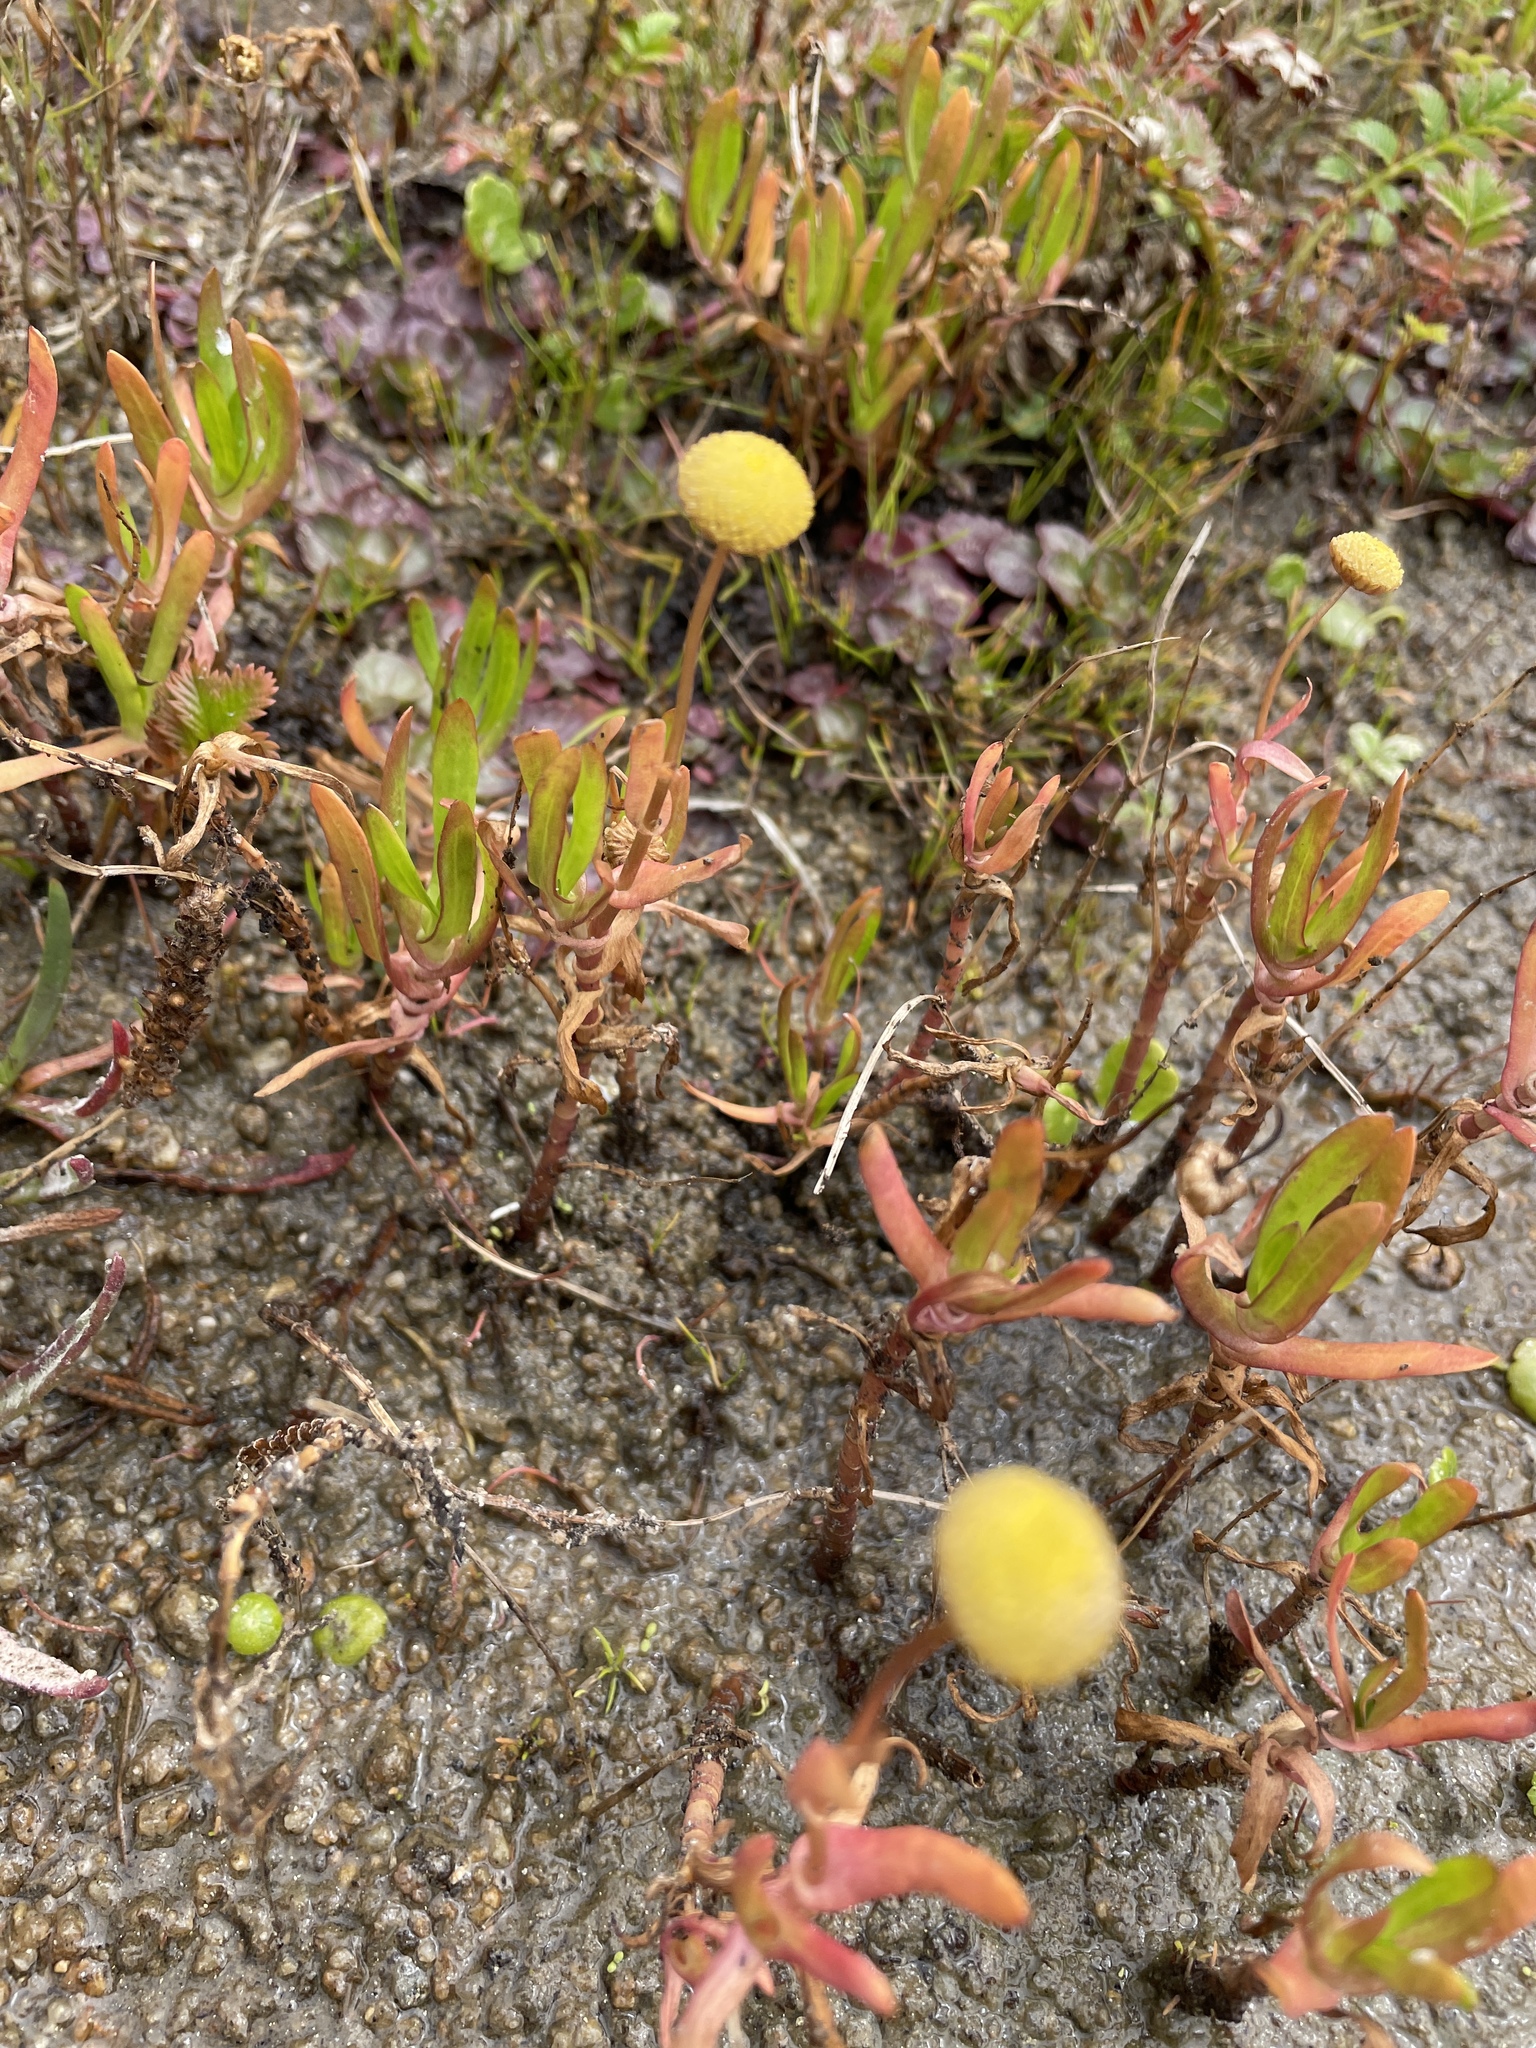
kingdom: Plantae
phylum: Tracheophyta
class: Magnoliopsida
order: Asterales
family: Asteraceae
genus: Cotula
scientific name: Cotula coronopifolia
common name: Buttonweed
